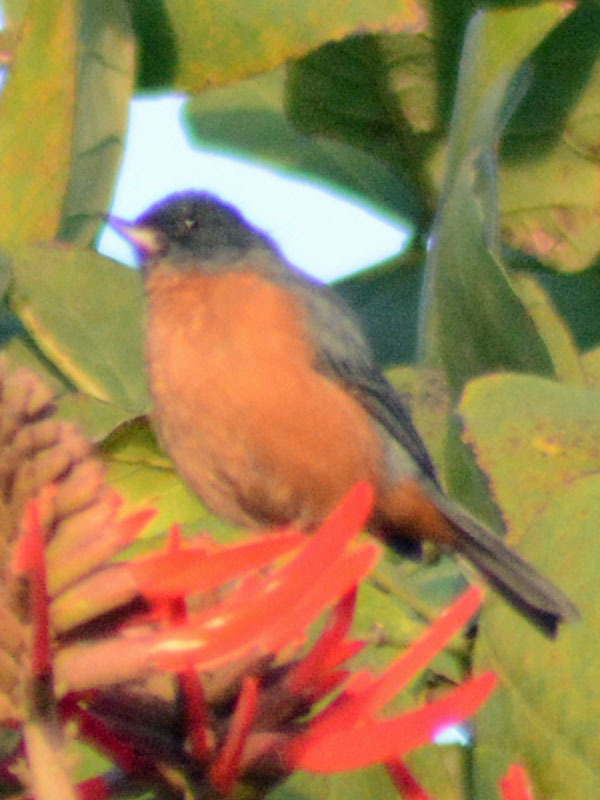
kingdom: Animalia
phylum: Chordata
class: Aves
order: Passeriformes
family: Thraupidae
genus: Diglossa
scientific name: Diglossa baritula
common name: Cinnamon-bellied flowerpiercer
